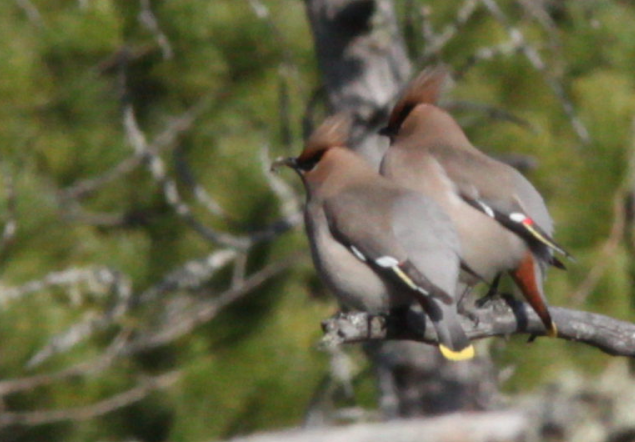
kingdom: Animalia
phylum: Chordata
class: Aves
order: Passeriformes
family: Bombycillidae
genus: Bombycilla
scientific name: Bombycilla garrulus
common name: Bohemian waxwing
